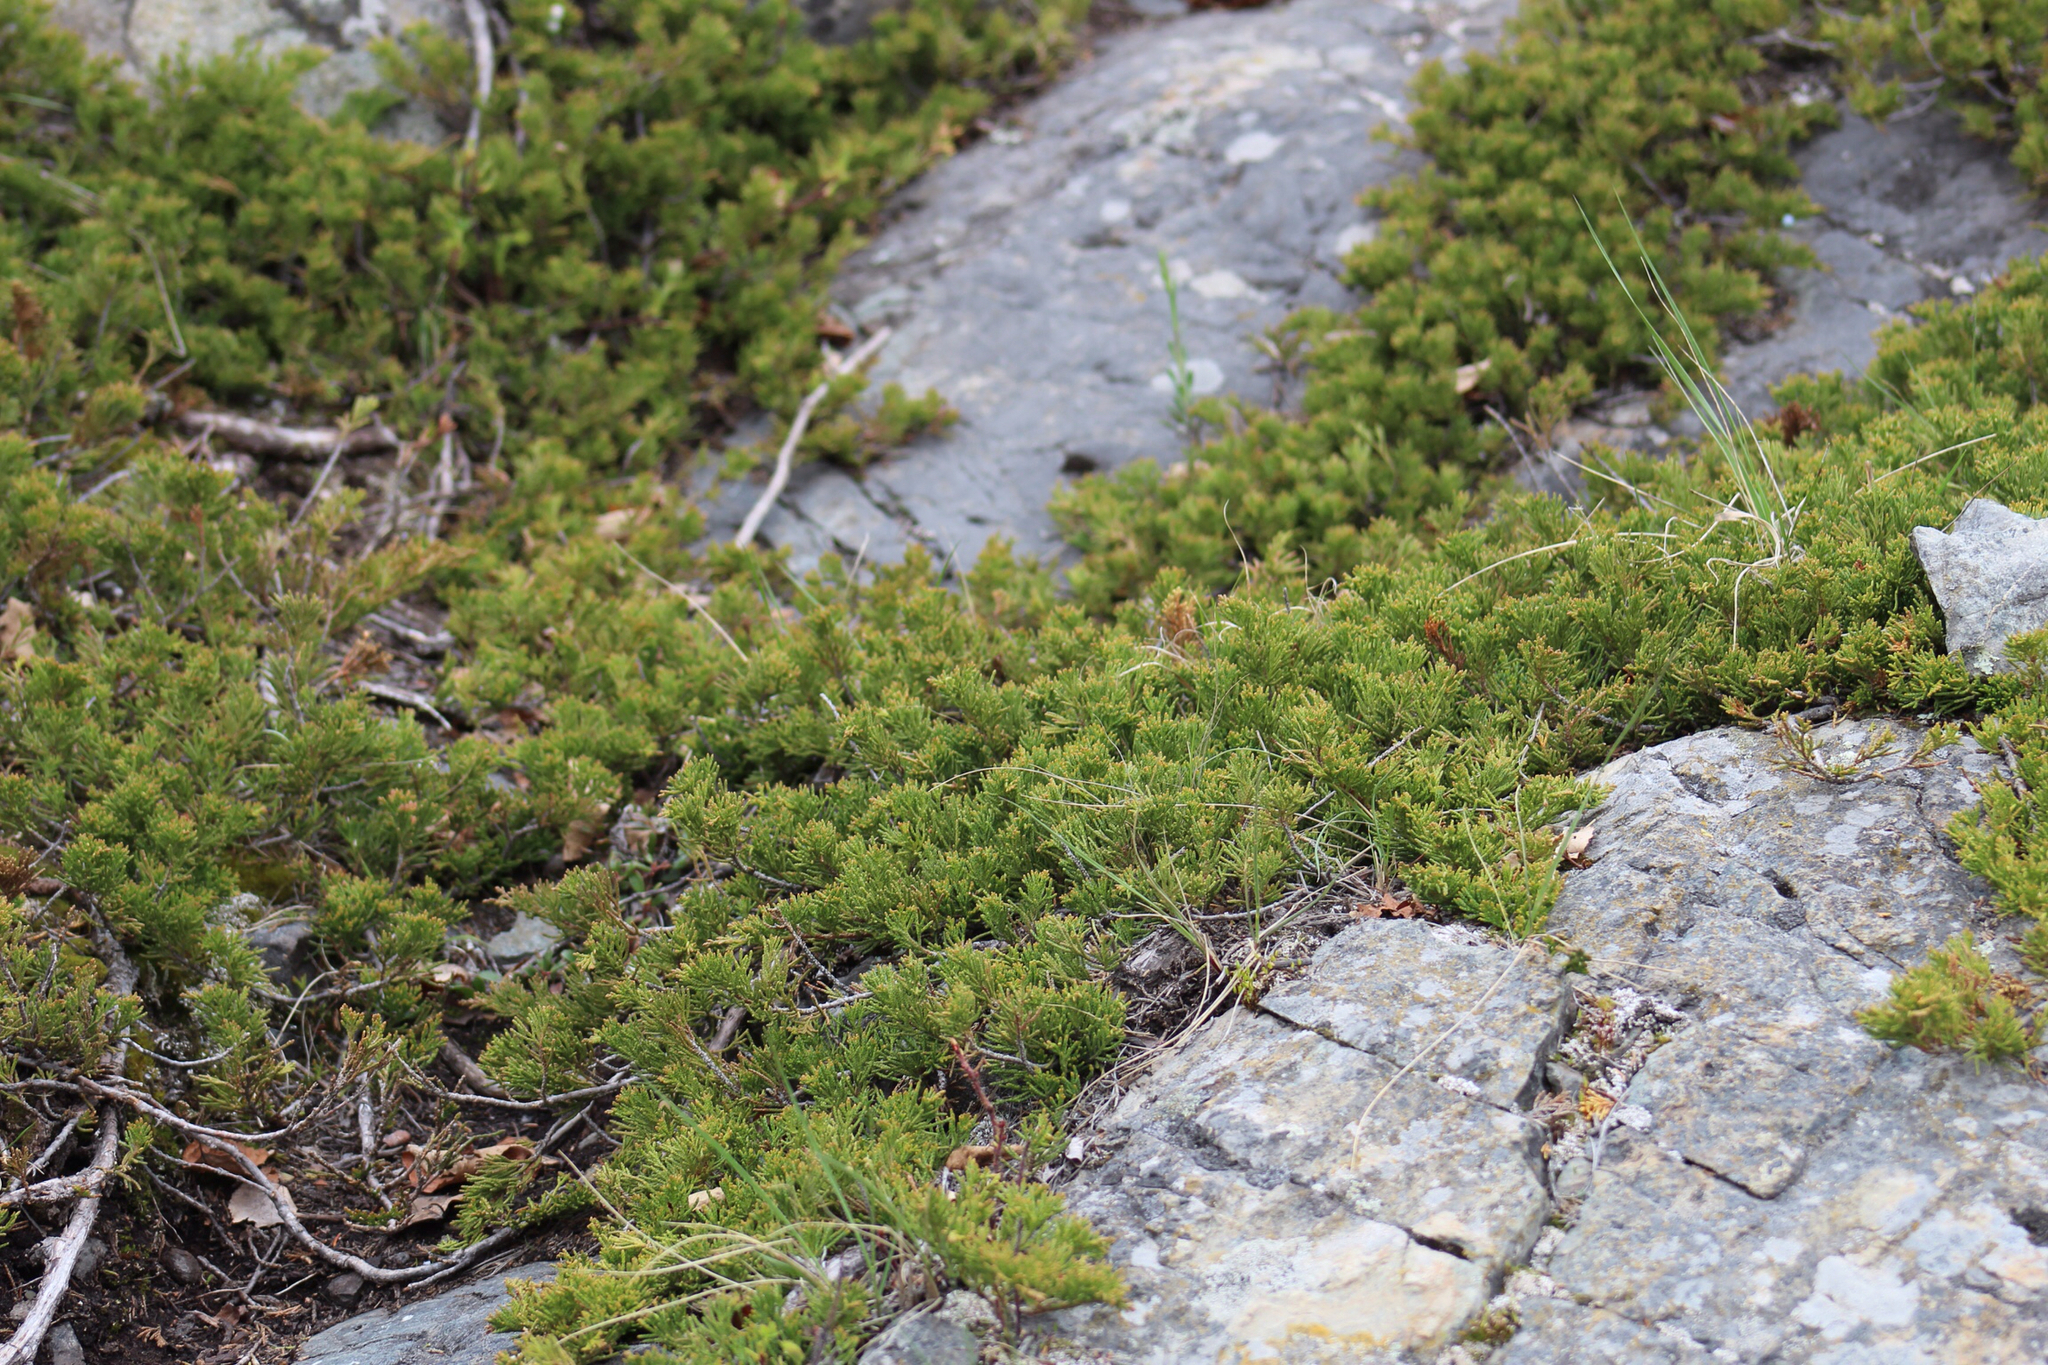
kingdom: Plantae
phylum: Tracheophyta
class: Pinopsida
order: Pinales
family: Cupressaceae
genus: Juniperus
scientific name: Juniperus horizontalis
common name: Creeping juniper
